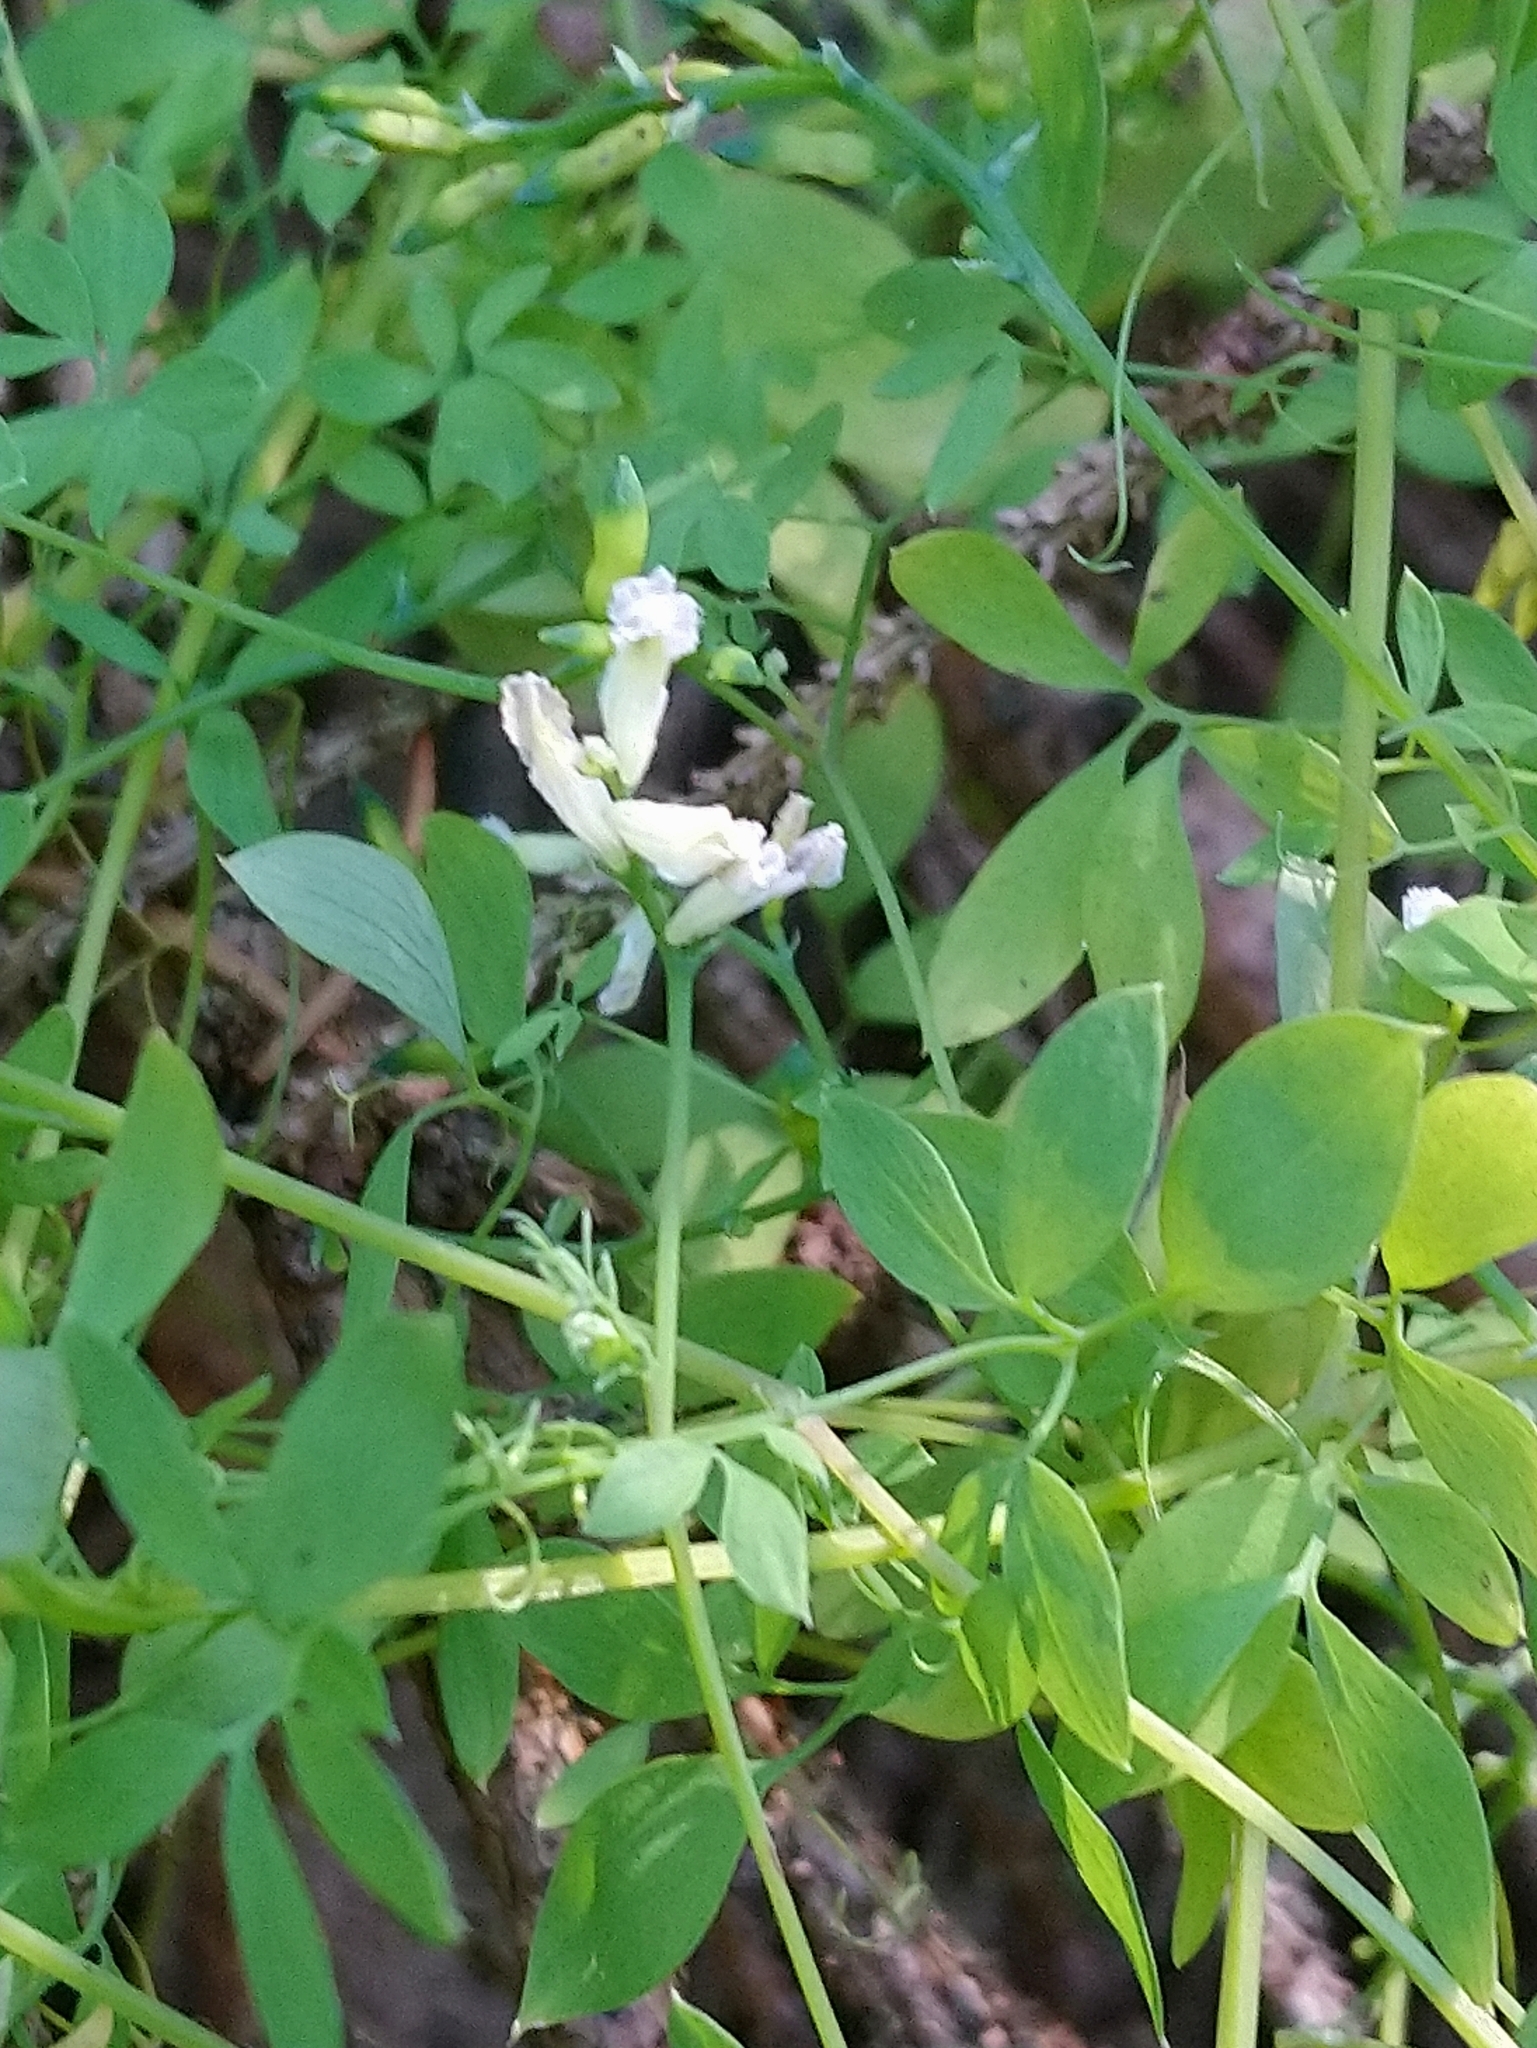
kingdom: Plantae
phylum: Tracheophyta
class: Magnoliopsida
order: Ranunculales
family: Papaveraceae
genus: Ceratocapnos
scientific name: Ceratocapnos claviculata
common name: Climbing corydalis
